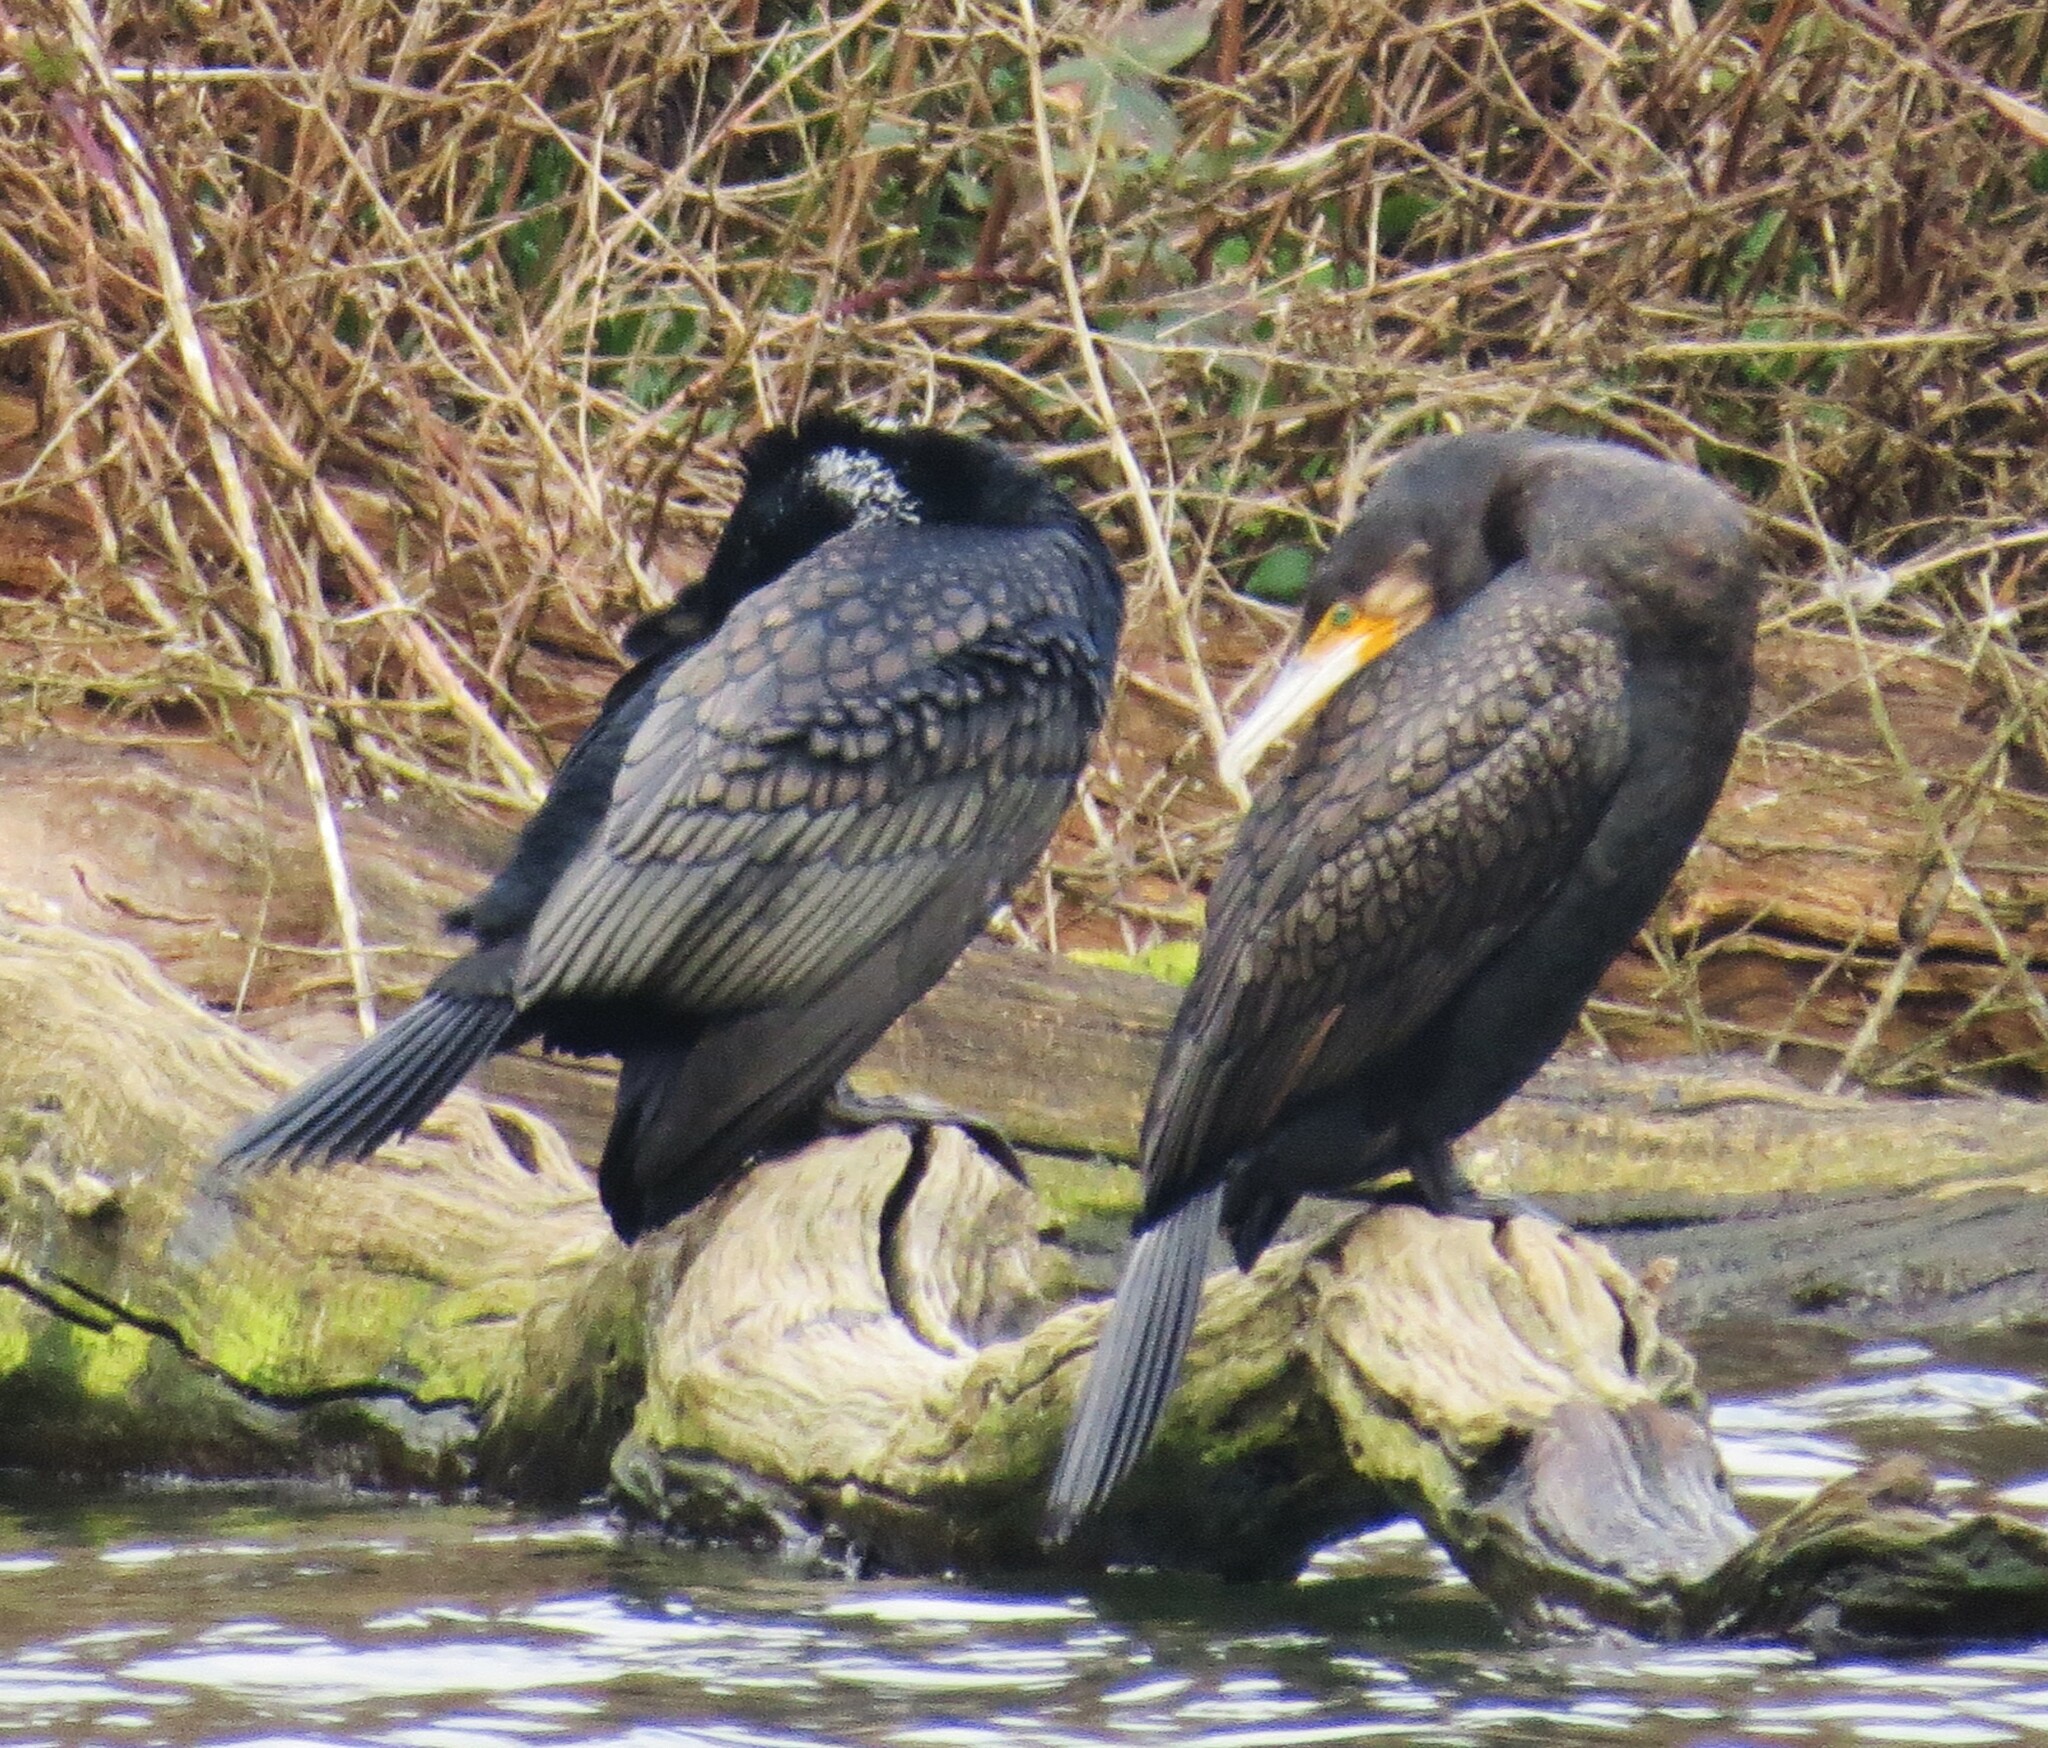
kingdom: Animalia
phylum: Chordata
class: Aves
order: Suliformes
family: Phalacrocoracidae
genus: Phalacrocorax
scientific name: Phalacrocorax carbo
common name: Great cormorant
